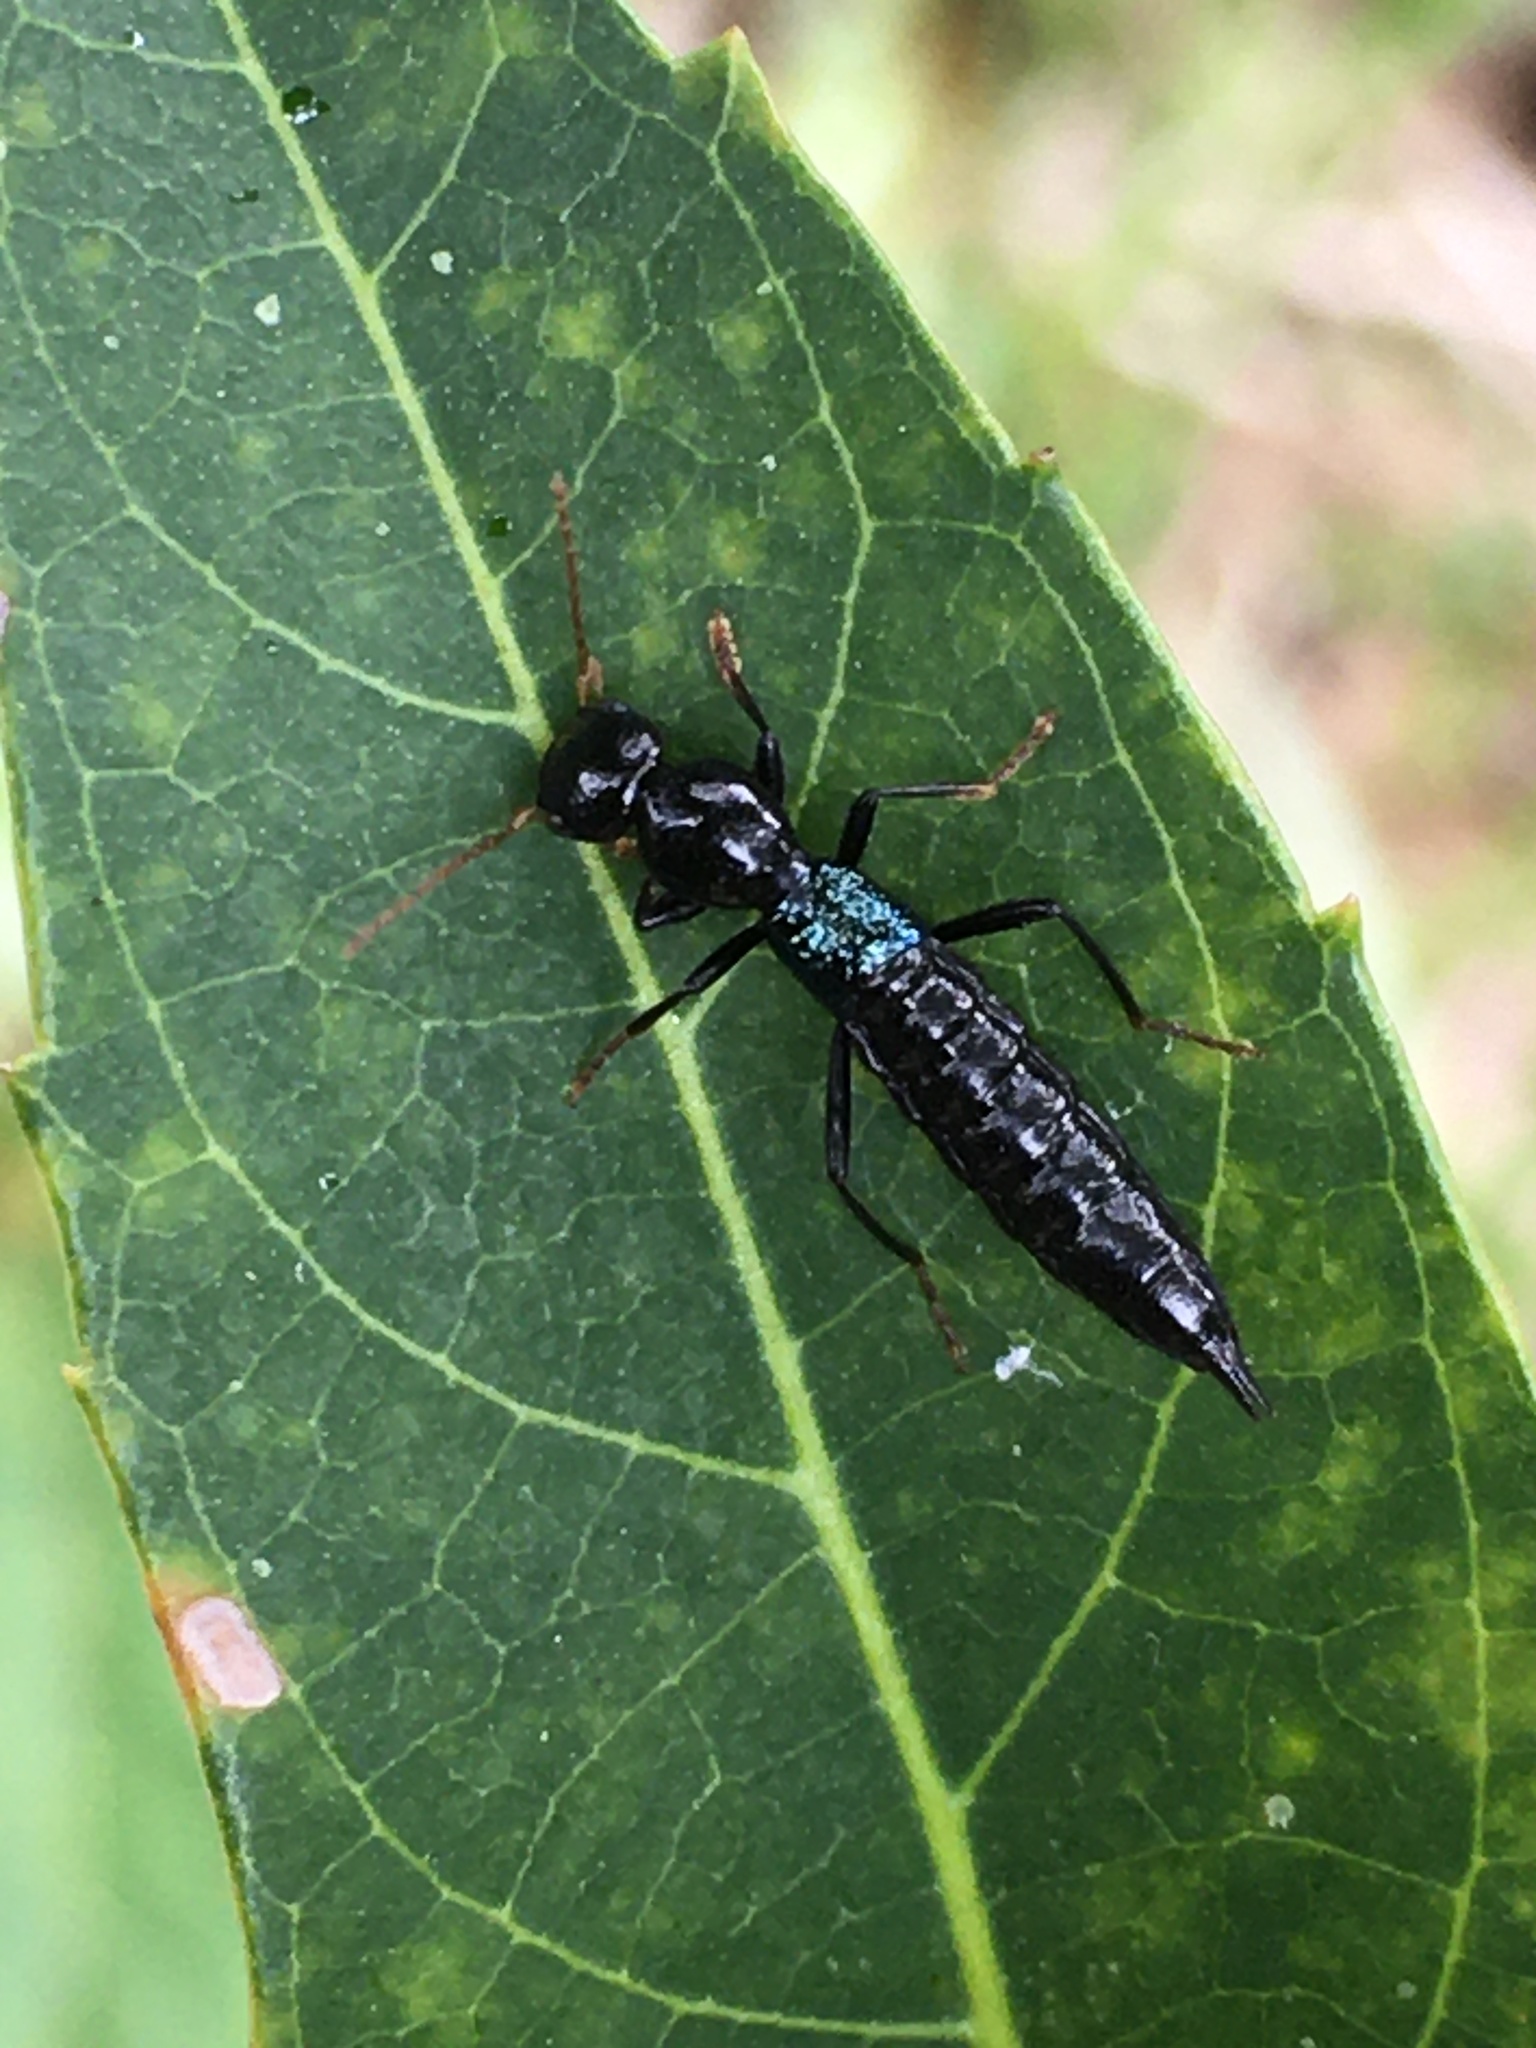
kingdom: Animalia
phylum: Arthropoda
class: Insecta
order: Coleoptera
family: Staphylinidae
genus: Paederus
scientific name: Paederus salvini
